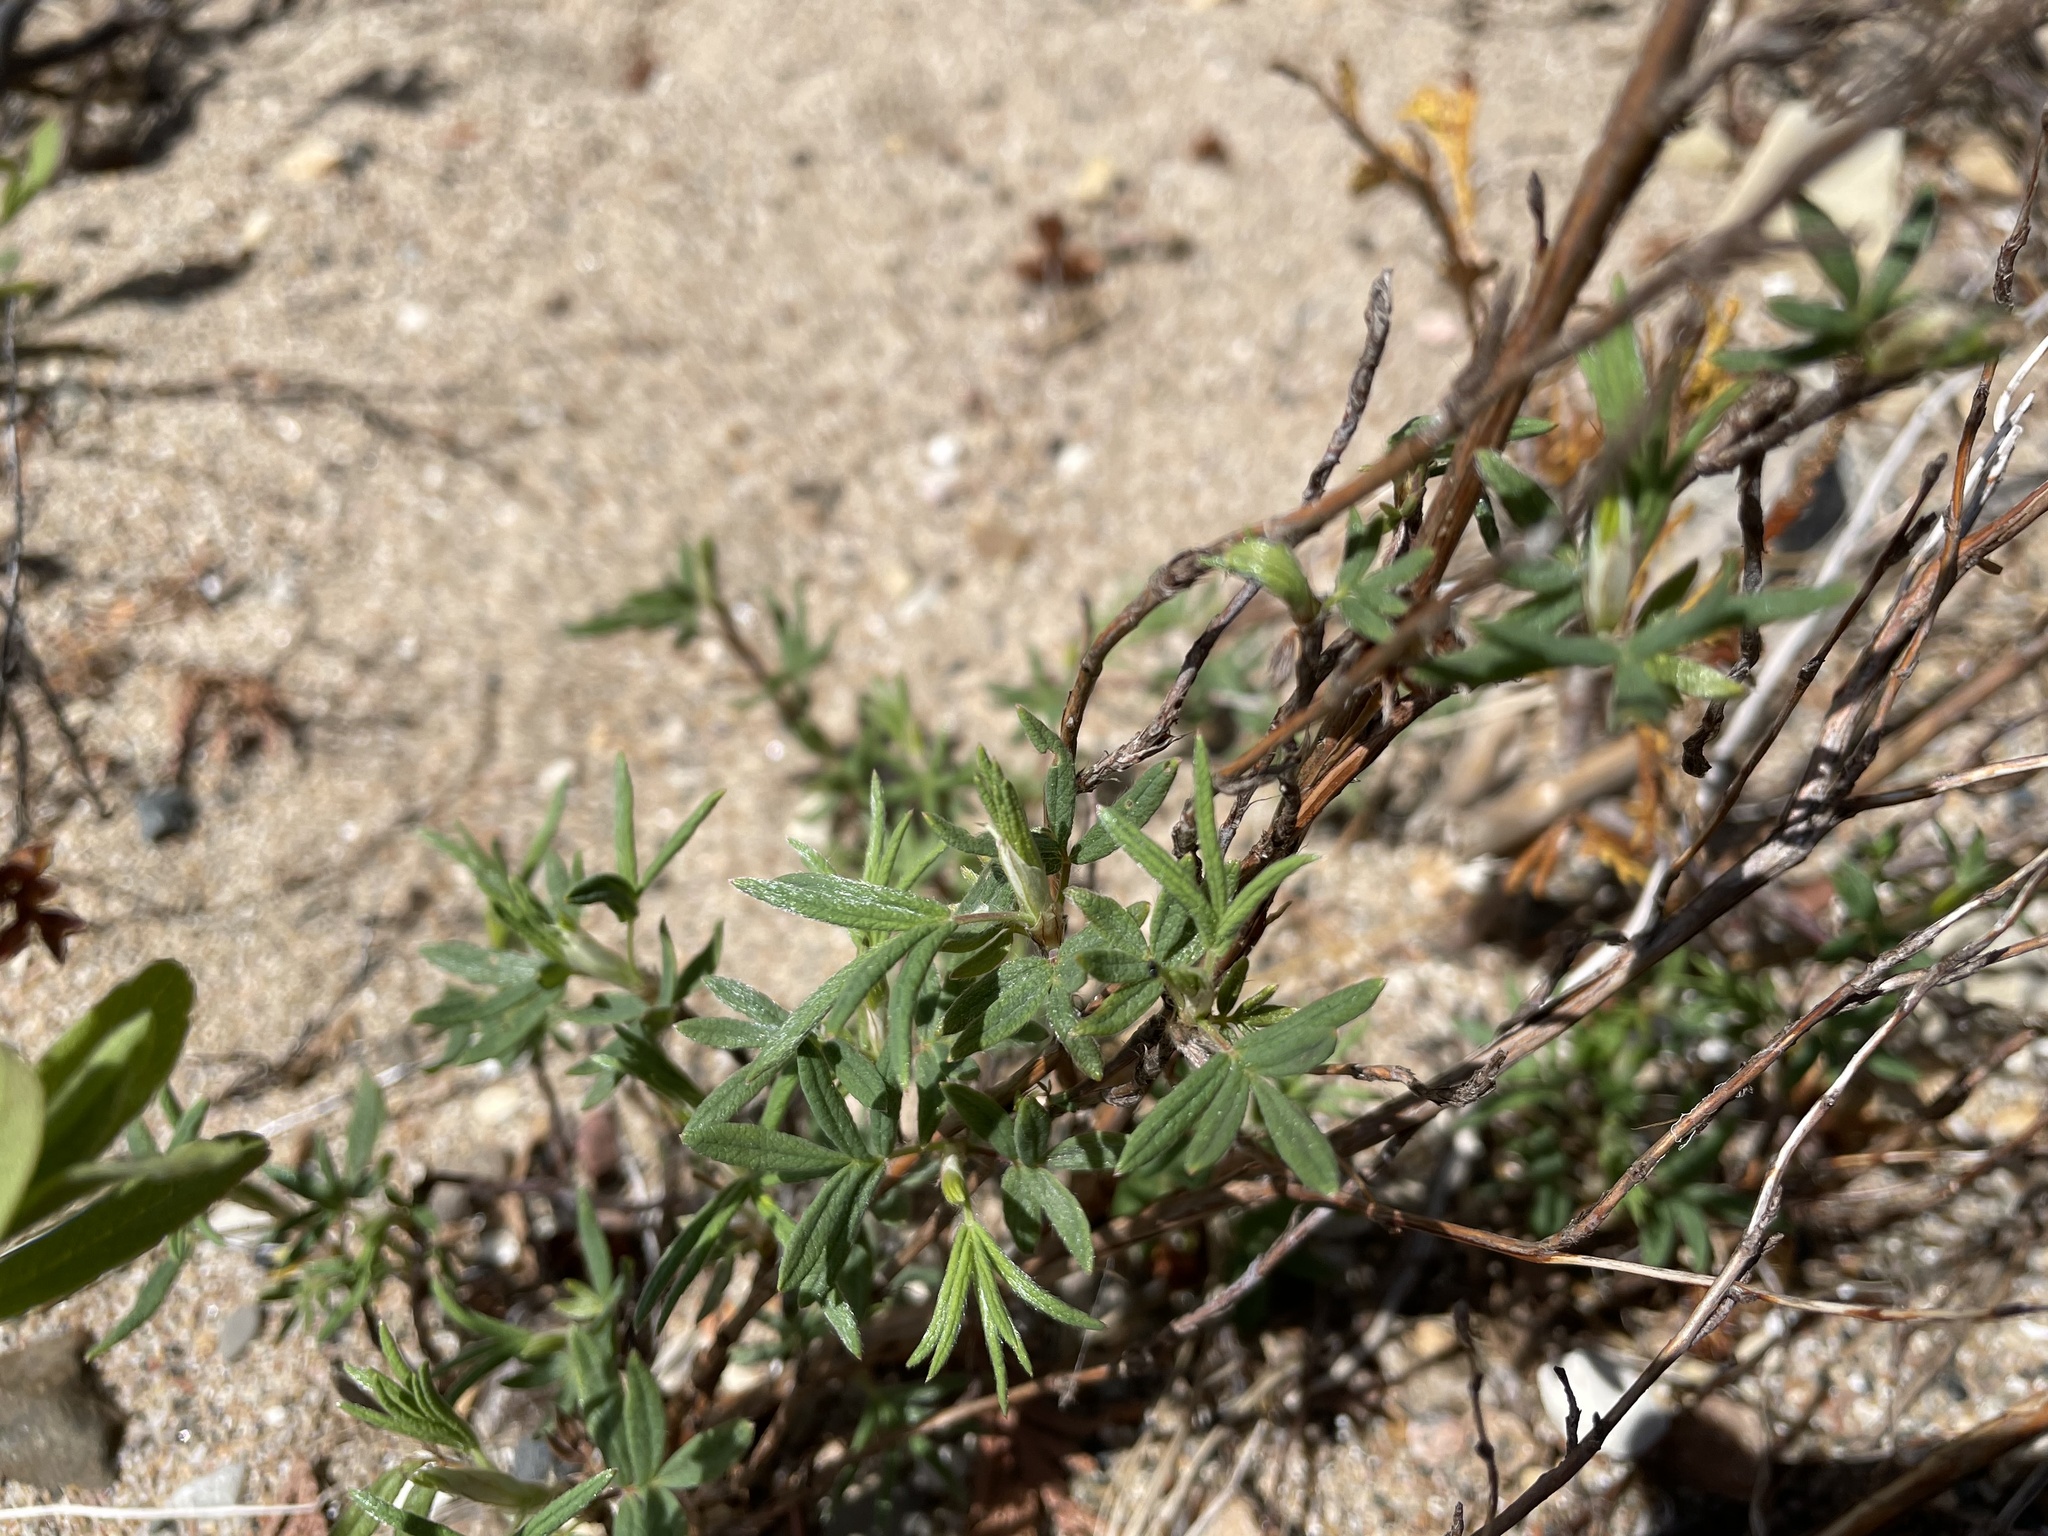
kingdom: Plantae
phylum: Tracheophyta
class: Magnoliopsida
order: Rosales
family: Rosaceae
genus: Dasiphora
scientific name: Dasiphora fruticosa
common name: Shrubby cinquefoil
